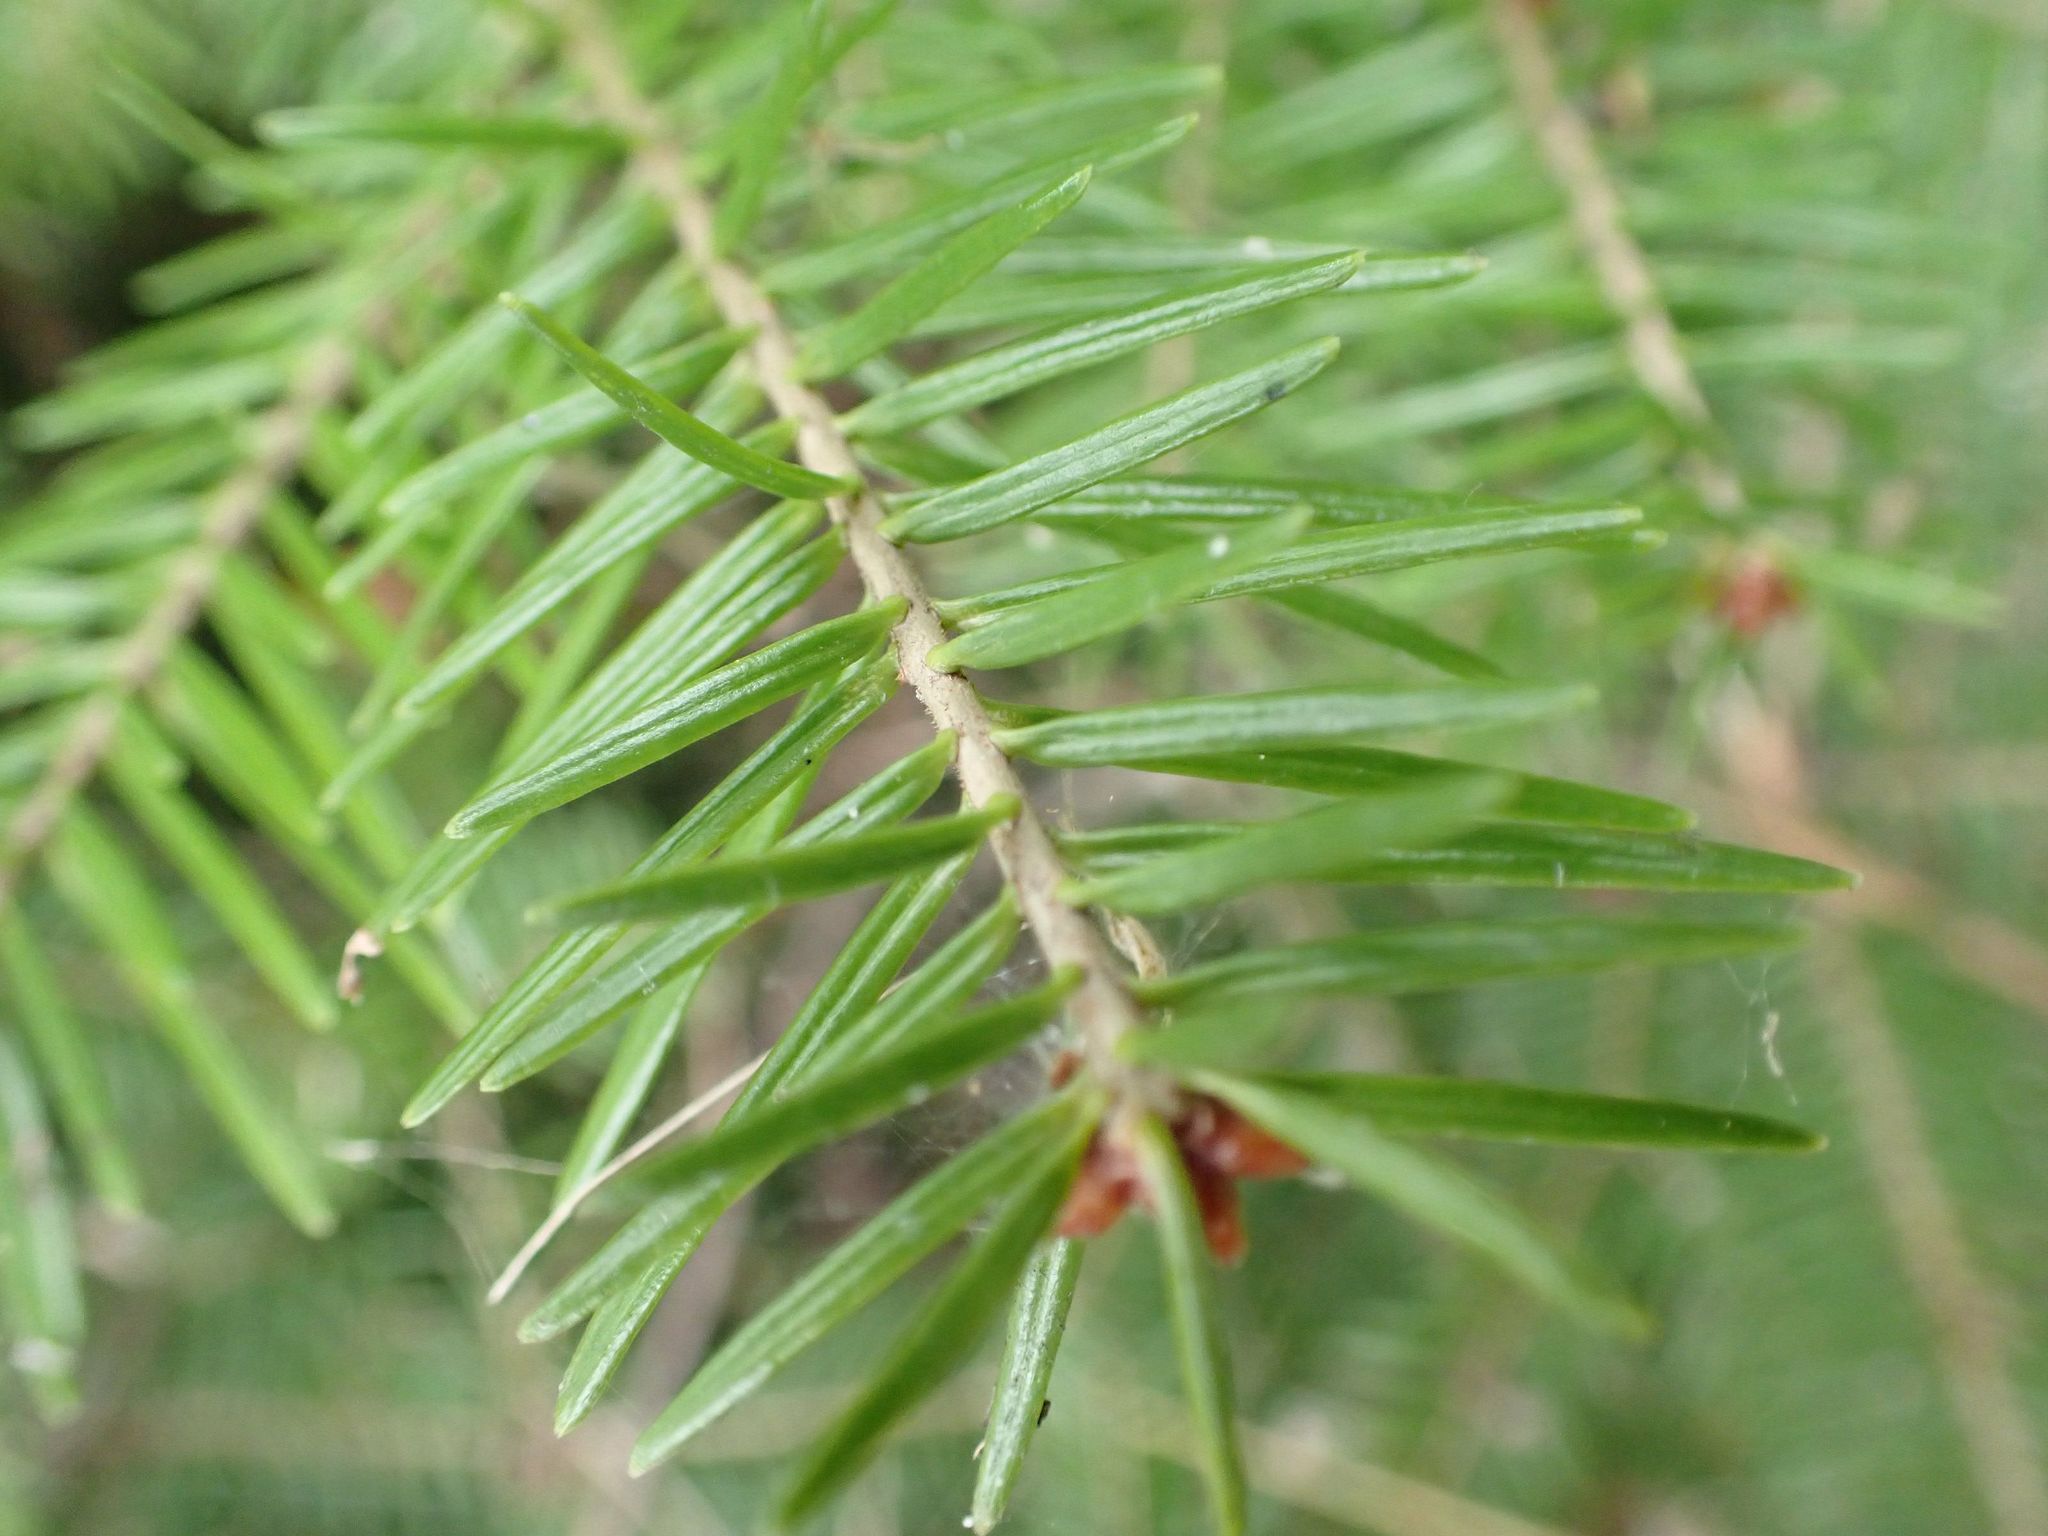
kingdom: Plantae
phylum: Tracheophyta
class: Pinopsida
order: Pinales
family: Pinaceae
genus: Abies
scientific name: Abies balsamea
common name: Balsam fir
